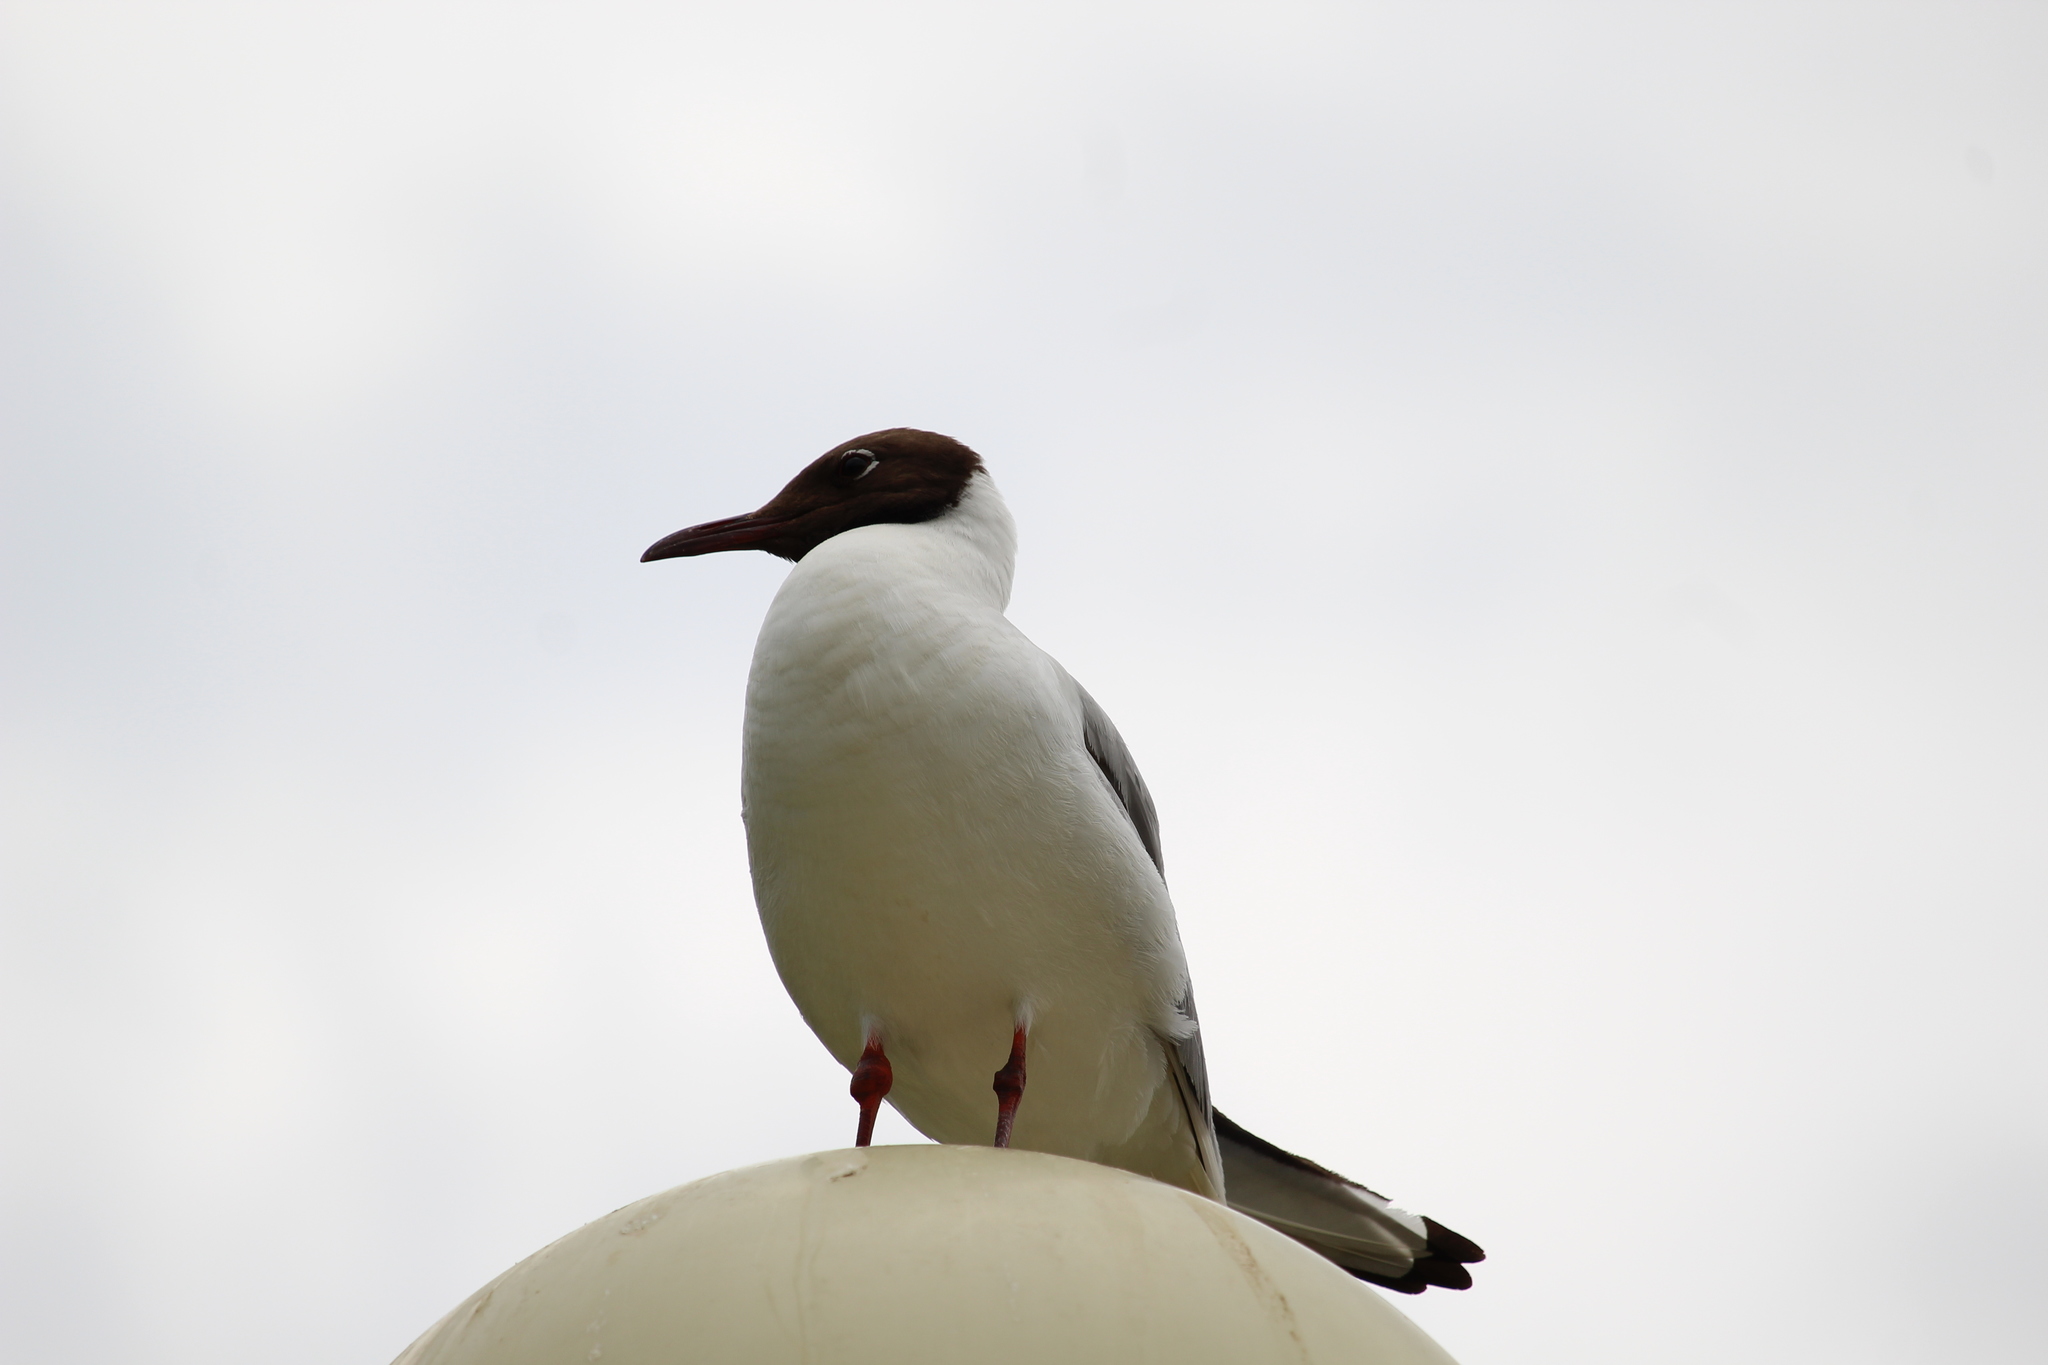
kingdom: Animalia
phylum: Chordata
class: Aves
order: Charadriiformes
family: Laridae
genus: Chroicocephalus
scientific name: Chroicocephalus ridibundus
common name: Black-headed gull
